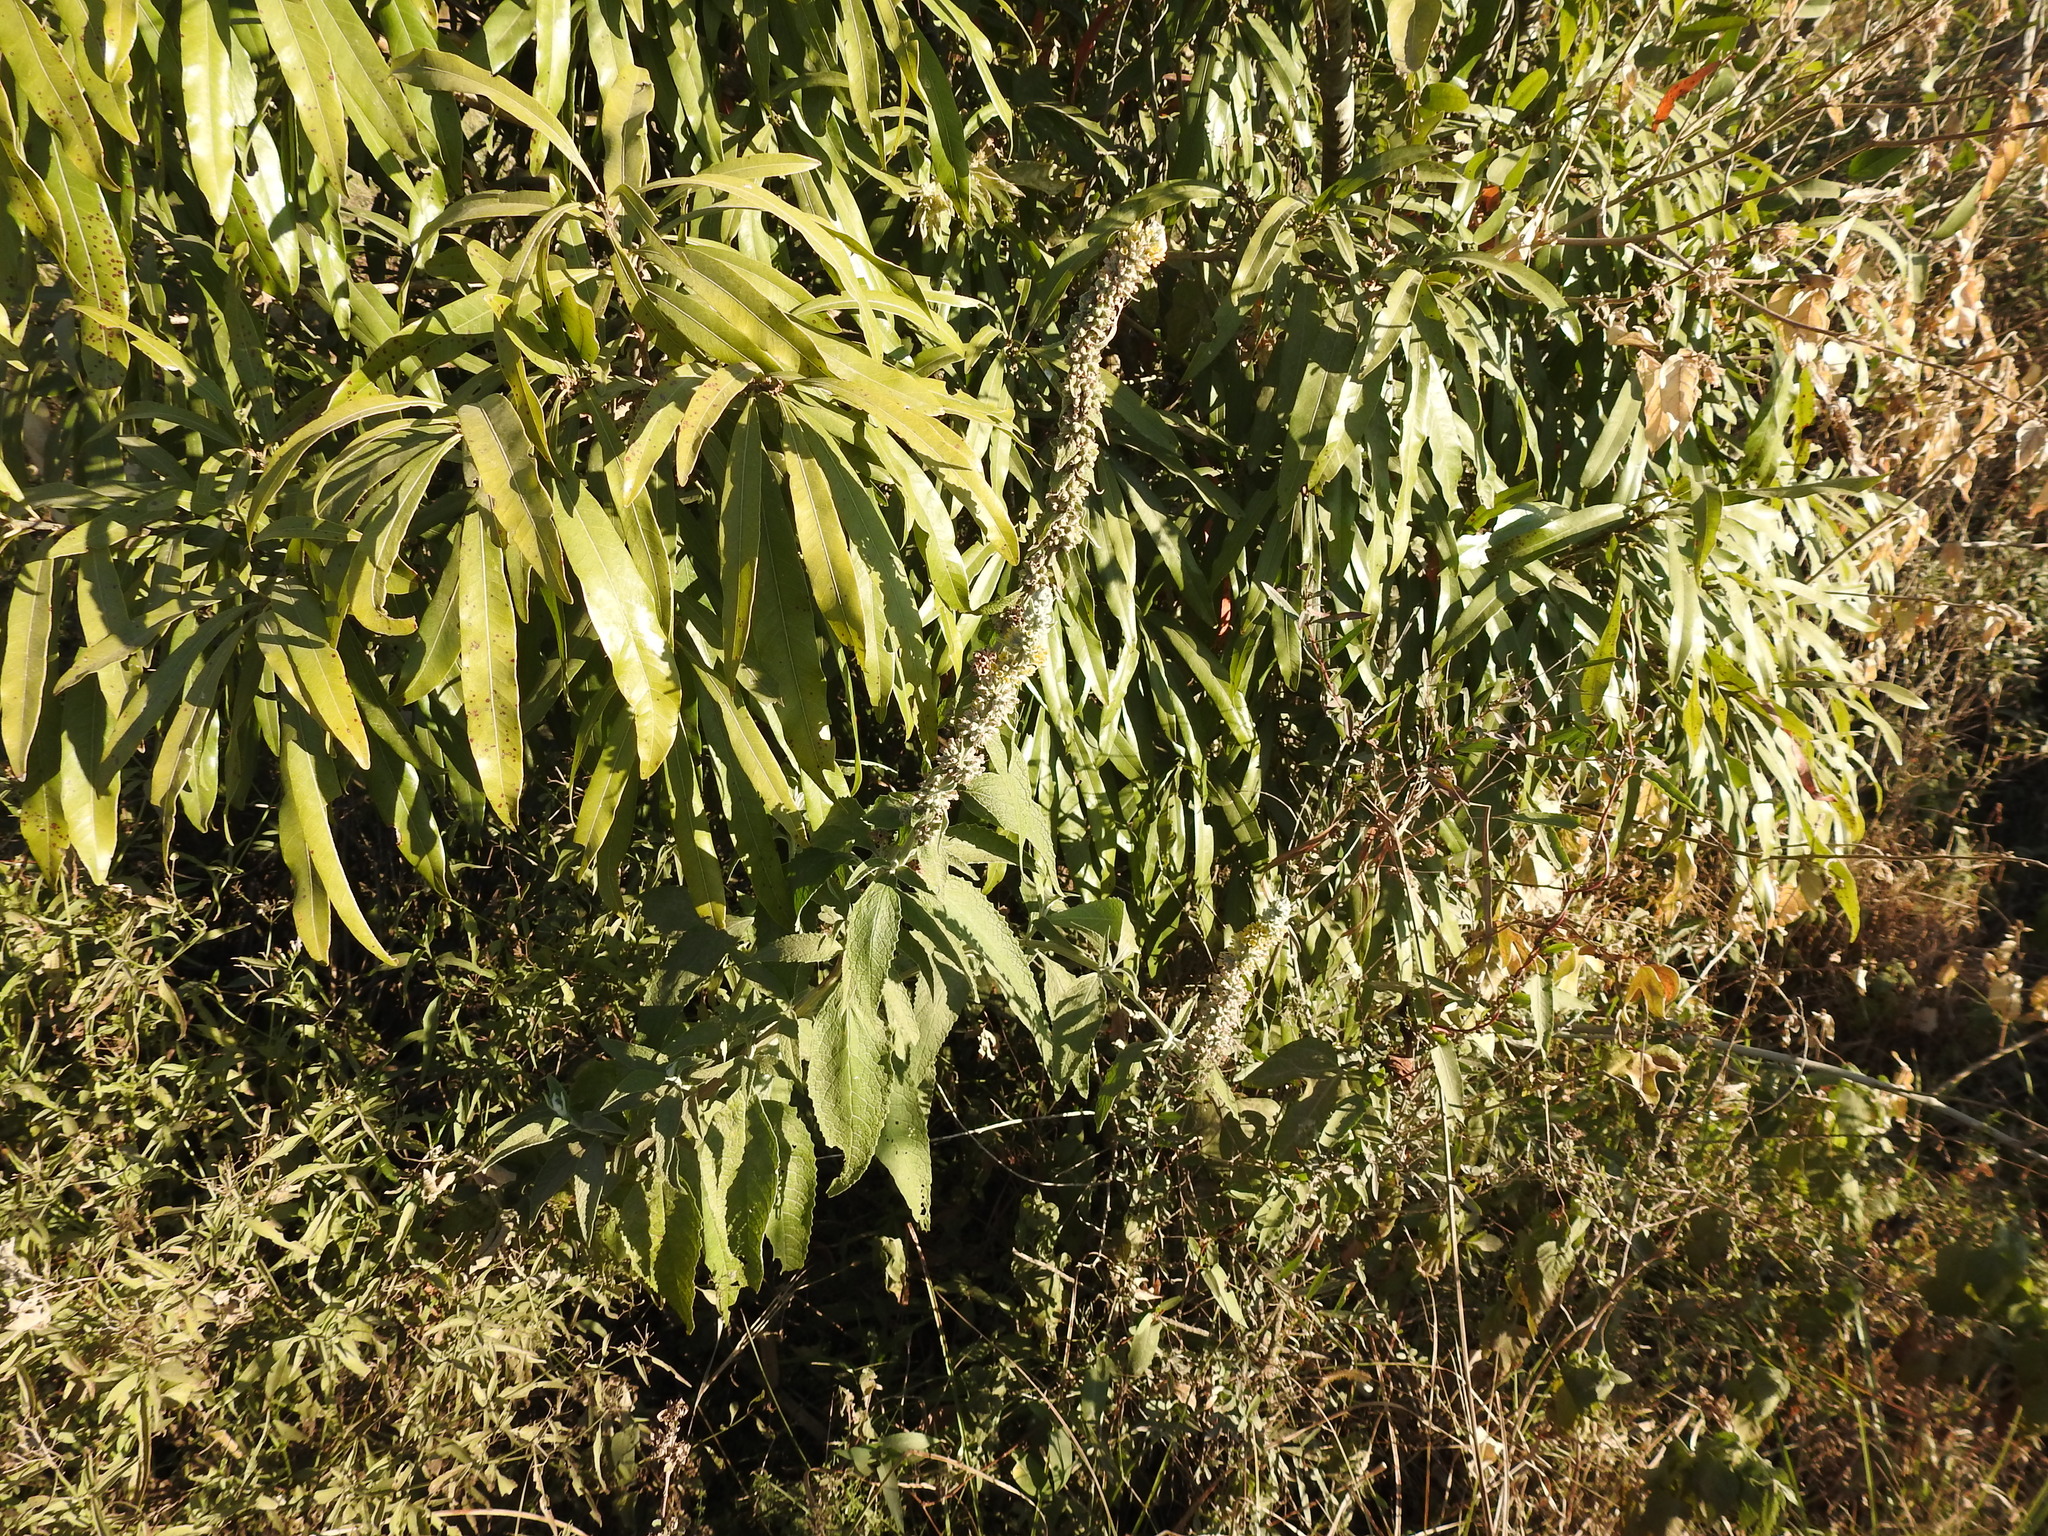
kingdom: Plantae
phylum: Tracheophyta
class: Magnoliopsida
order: Lamiales
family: Scrophulariaceae
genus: Buddleja
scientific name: Buddleja stachyoides
